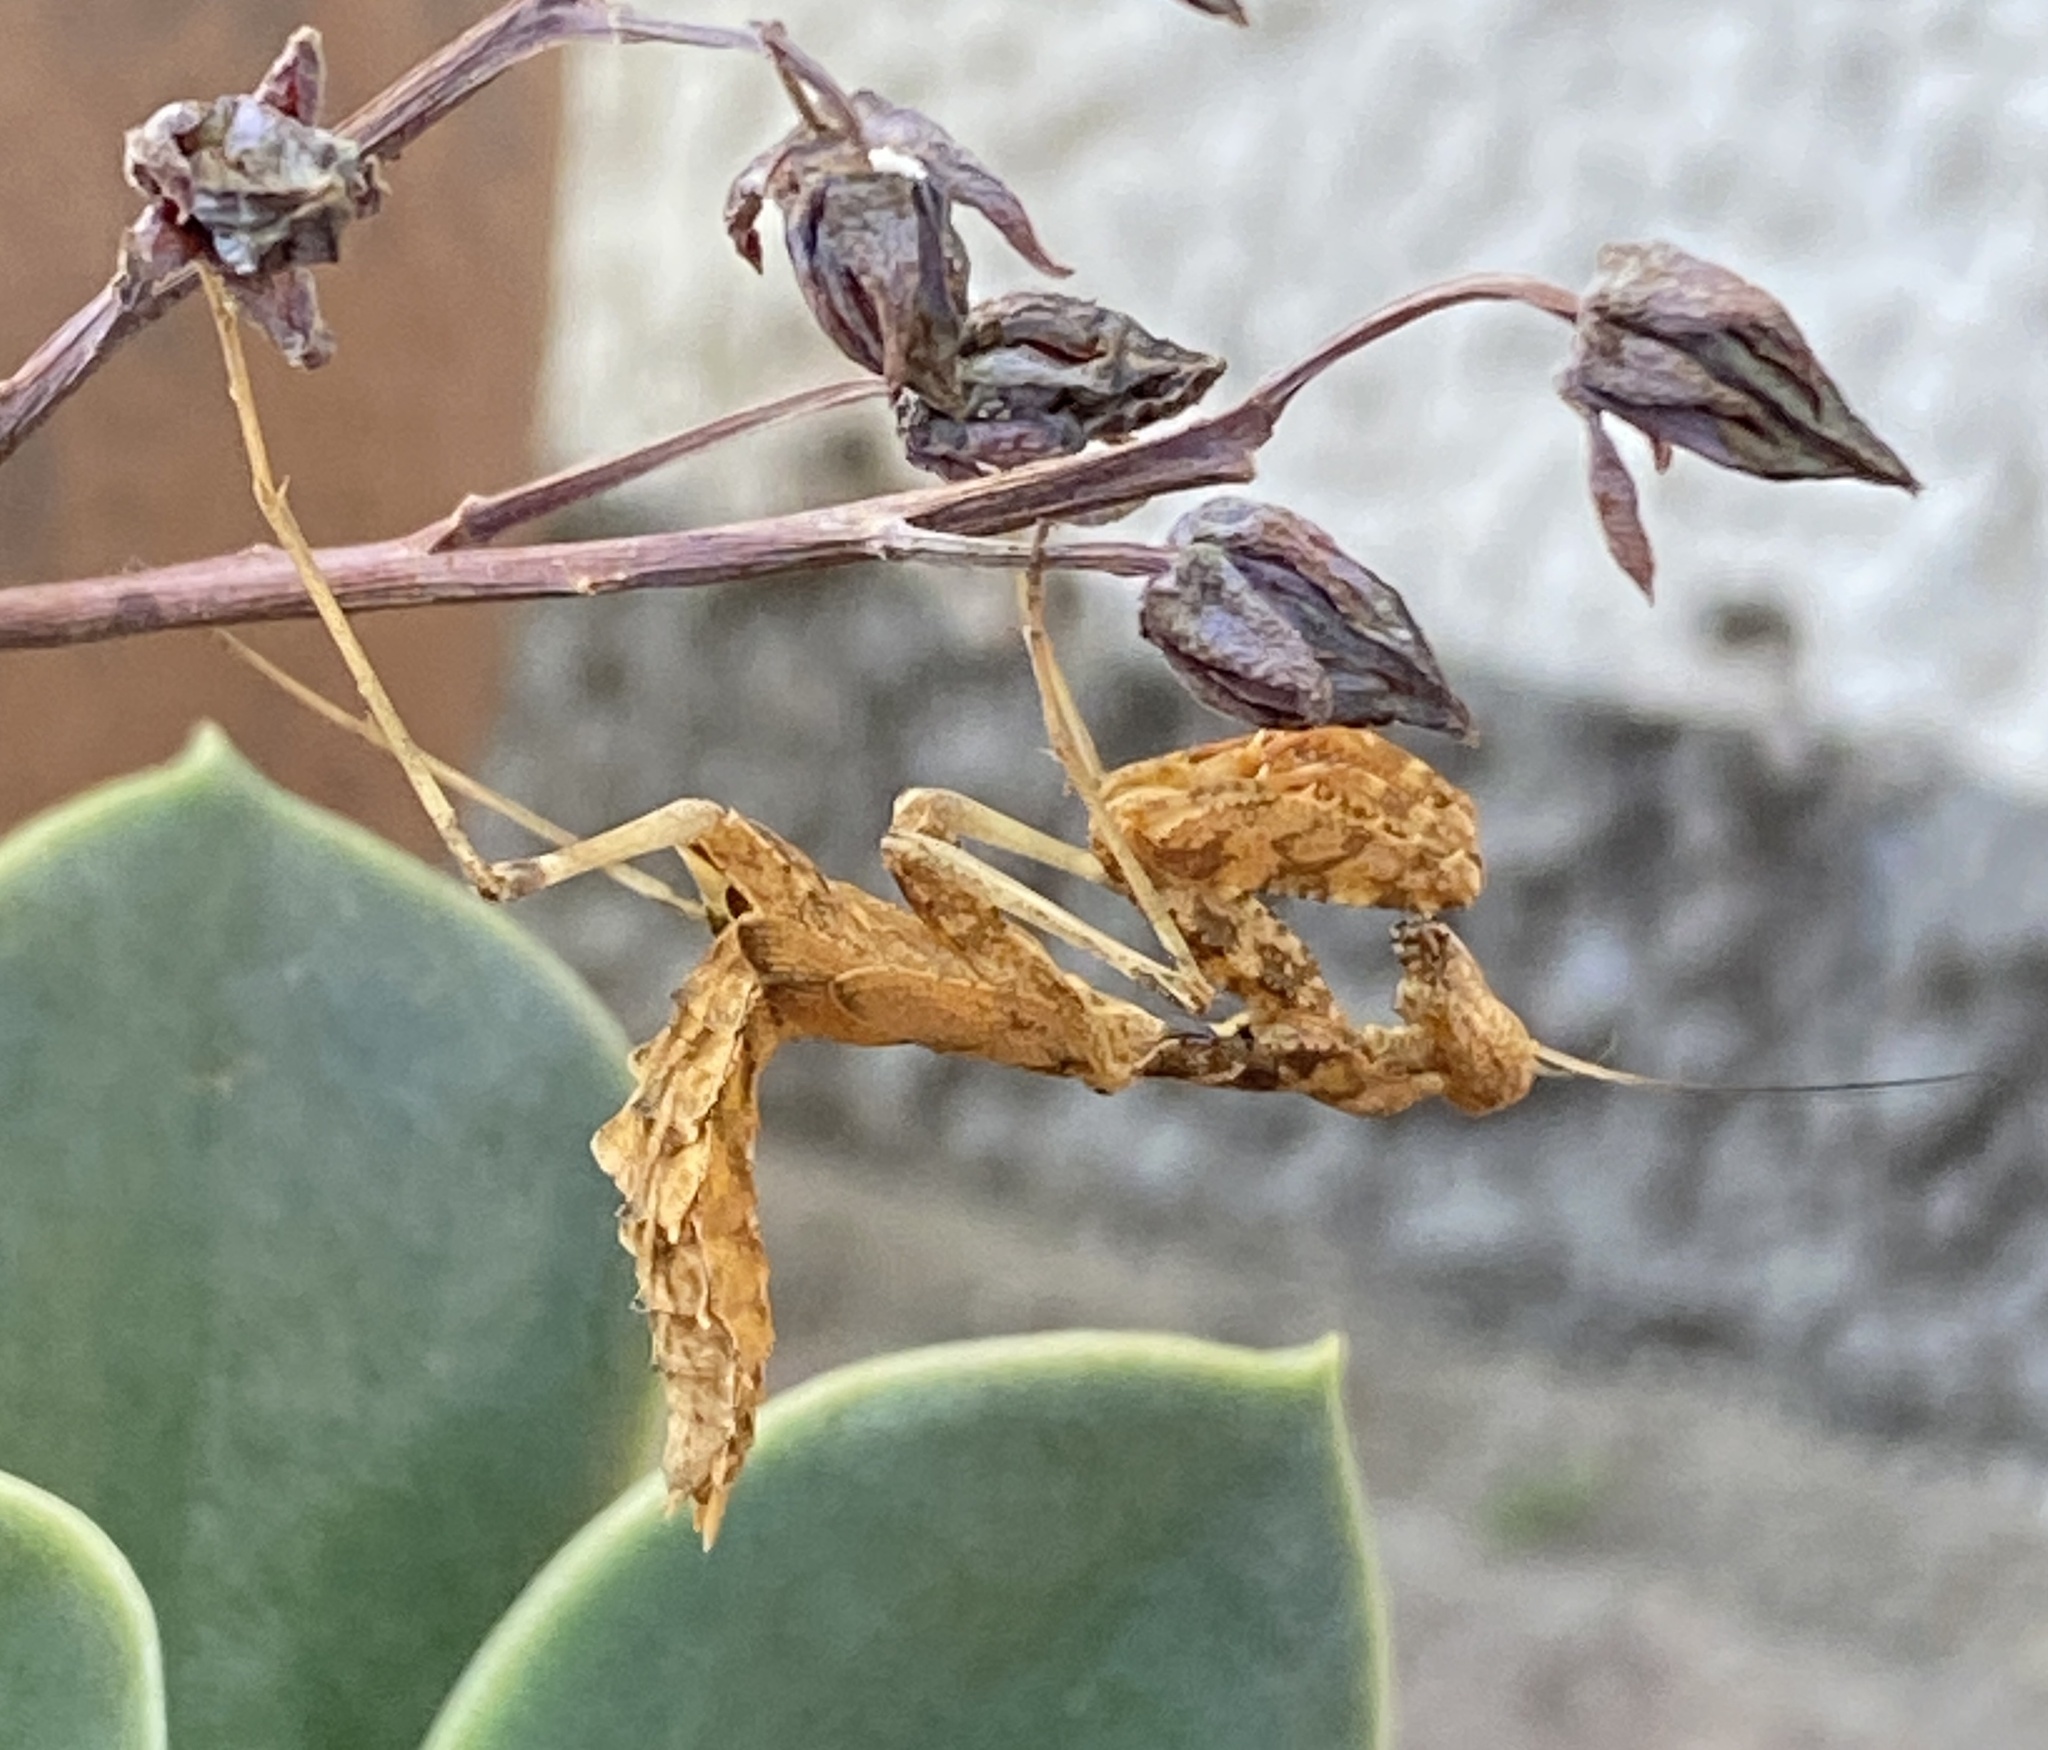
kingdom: Animalia
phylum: Arthropoda
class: Insecta
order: Mantodea
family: Chroicopteridae
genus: Dystacta
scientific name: Dystacta alticeps
